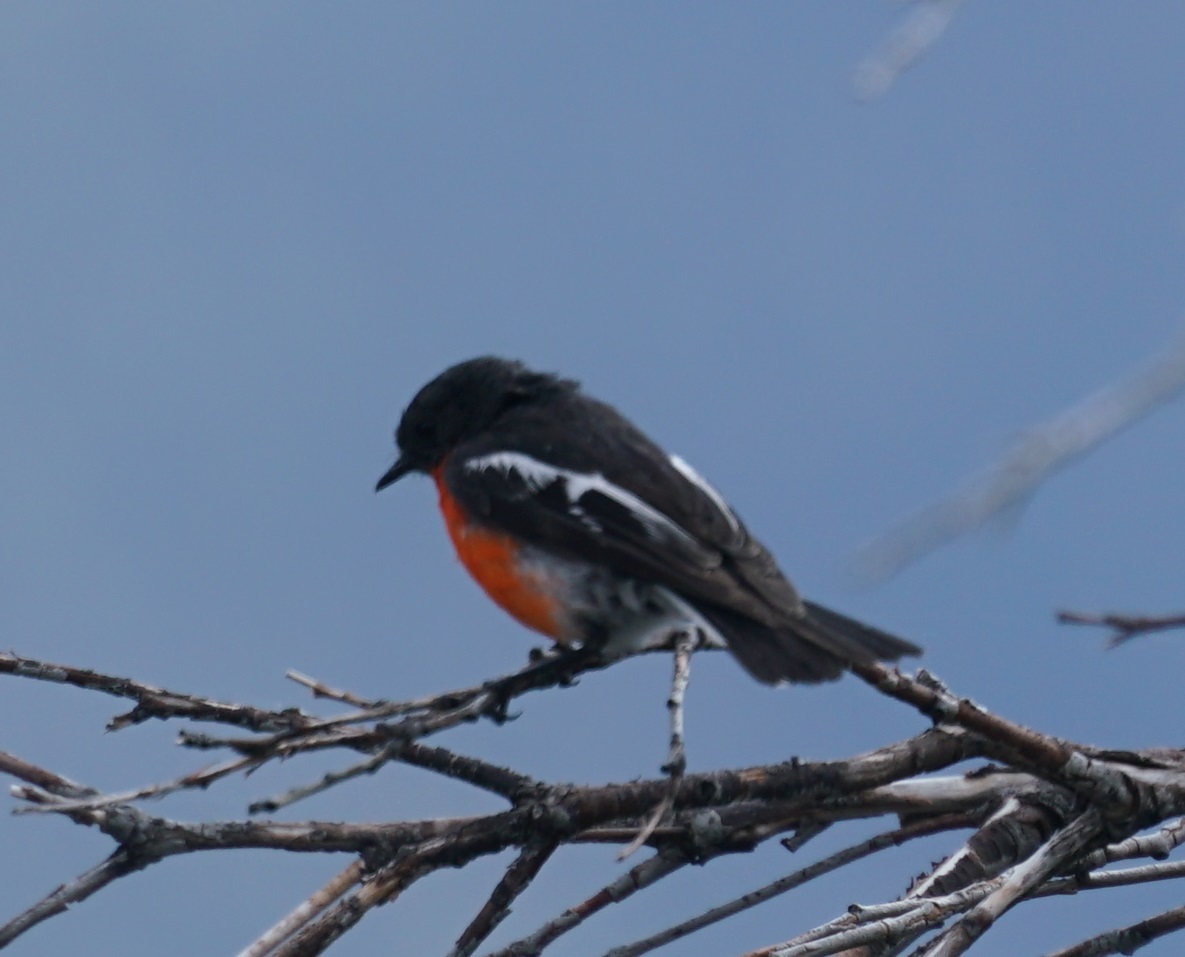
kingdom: Animalia
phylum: Chordata
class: Aves
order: Passeriformes
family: Petroicidae
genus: Petroica
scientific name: Petroica phoenicea
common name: Flame robin
